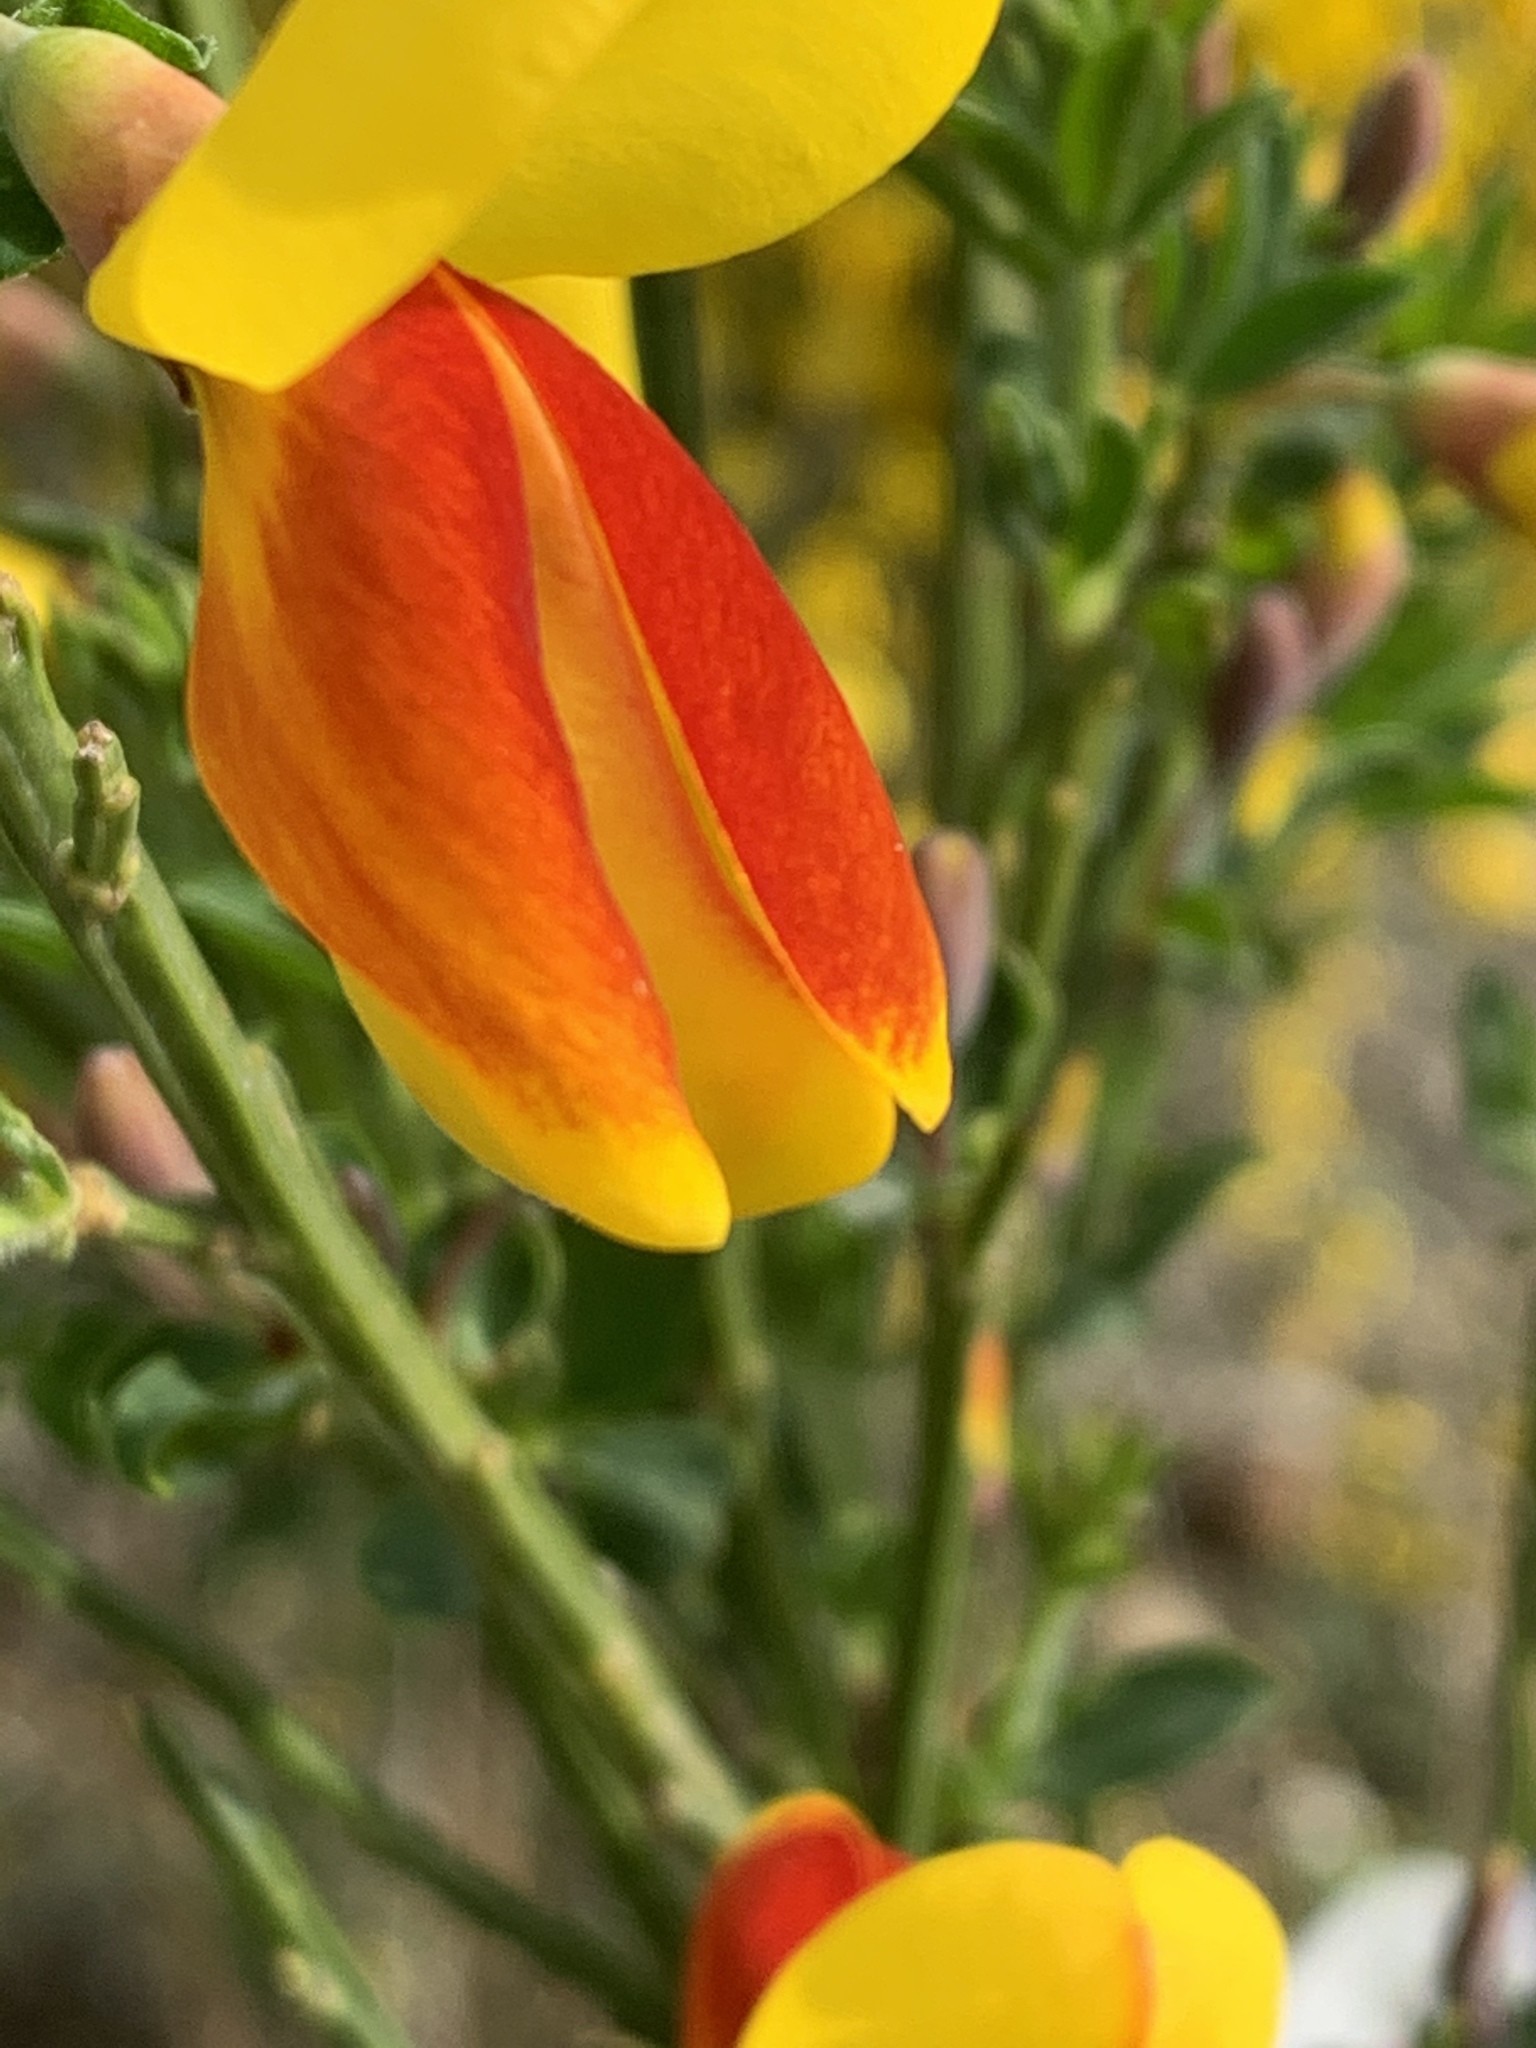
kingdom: Plantae
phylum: Tracheophyta
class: Magnoliopsida
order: Fabales
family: Fabaceae
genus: Cytisus
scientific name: Cytisus scoparius
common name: Scotch broom
